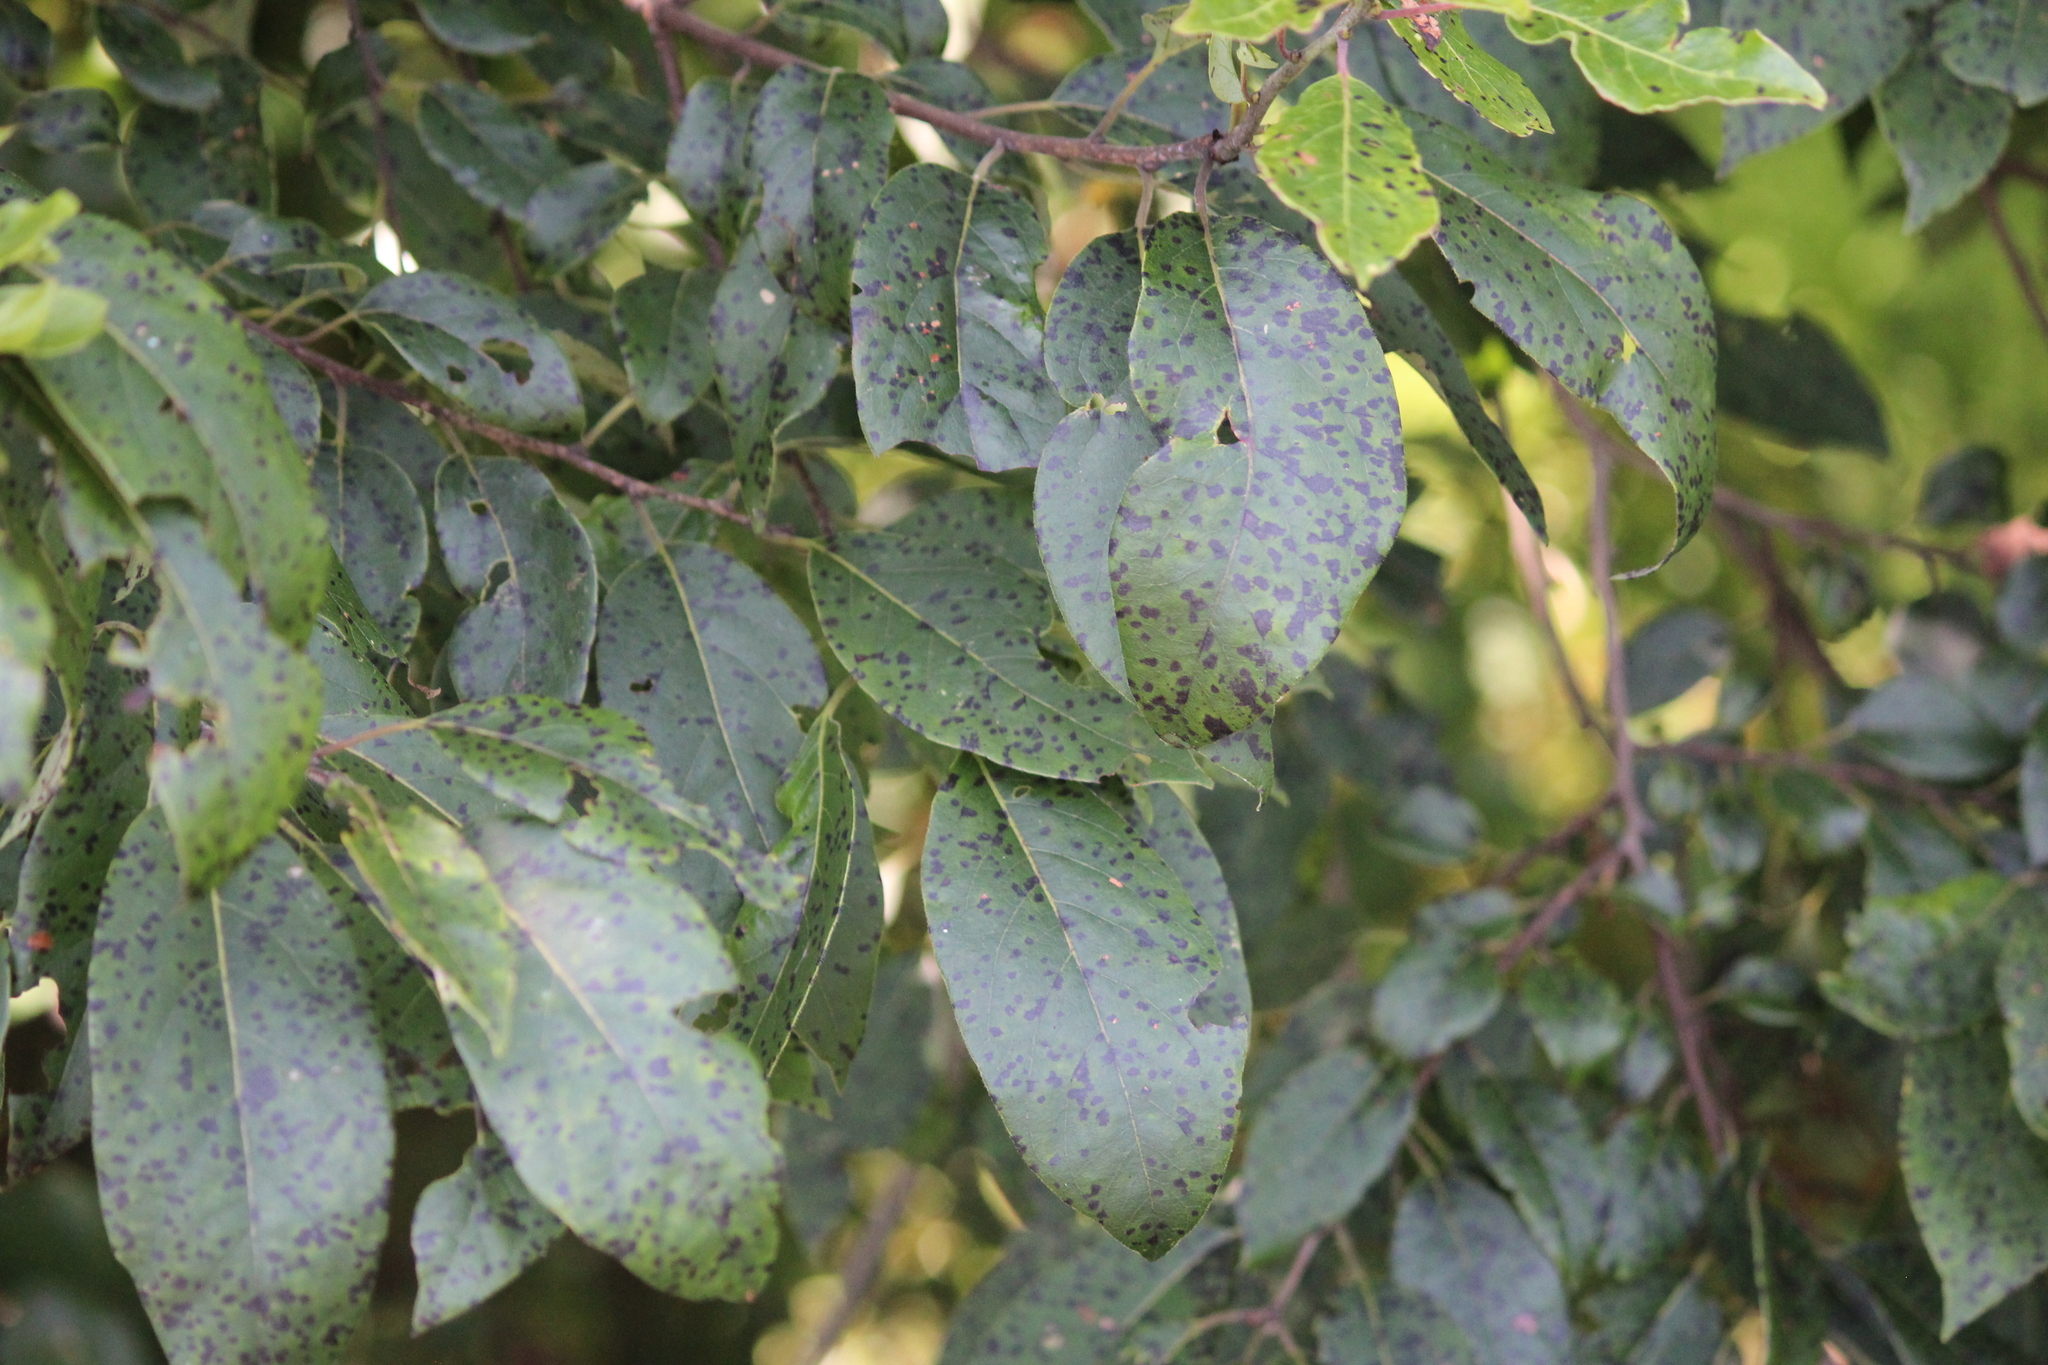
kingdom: Plantae
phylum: Tracheophyta
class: Magnoliopsida
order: Ericales
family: Ebenaceae
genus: Diospyros
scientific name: Diospyros virginiana
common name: Persimmon
